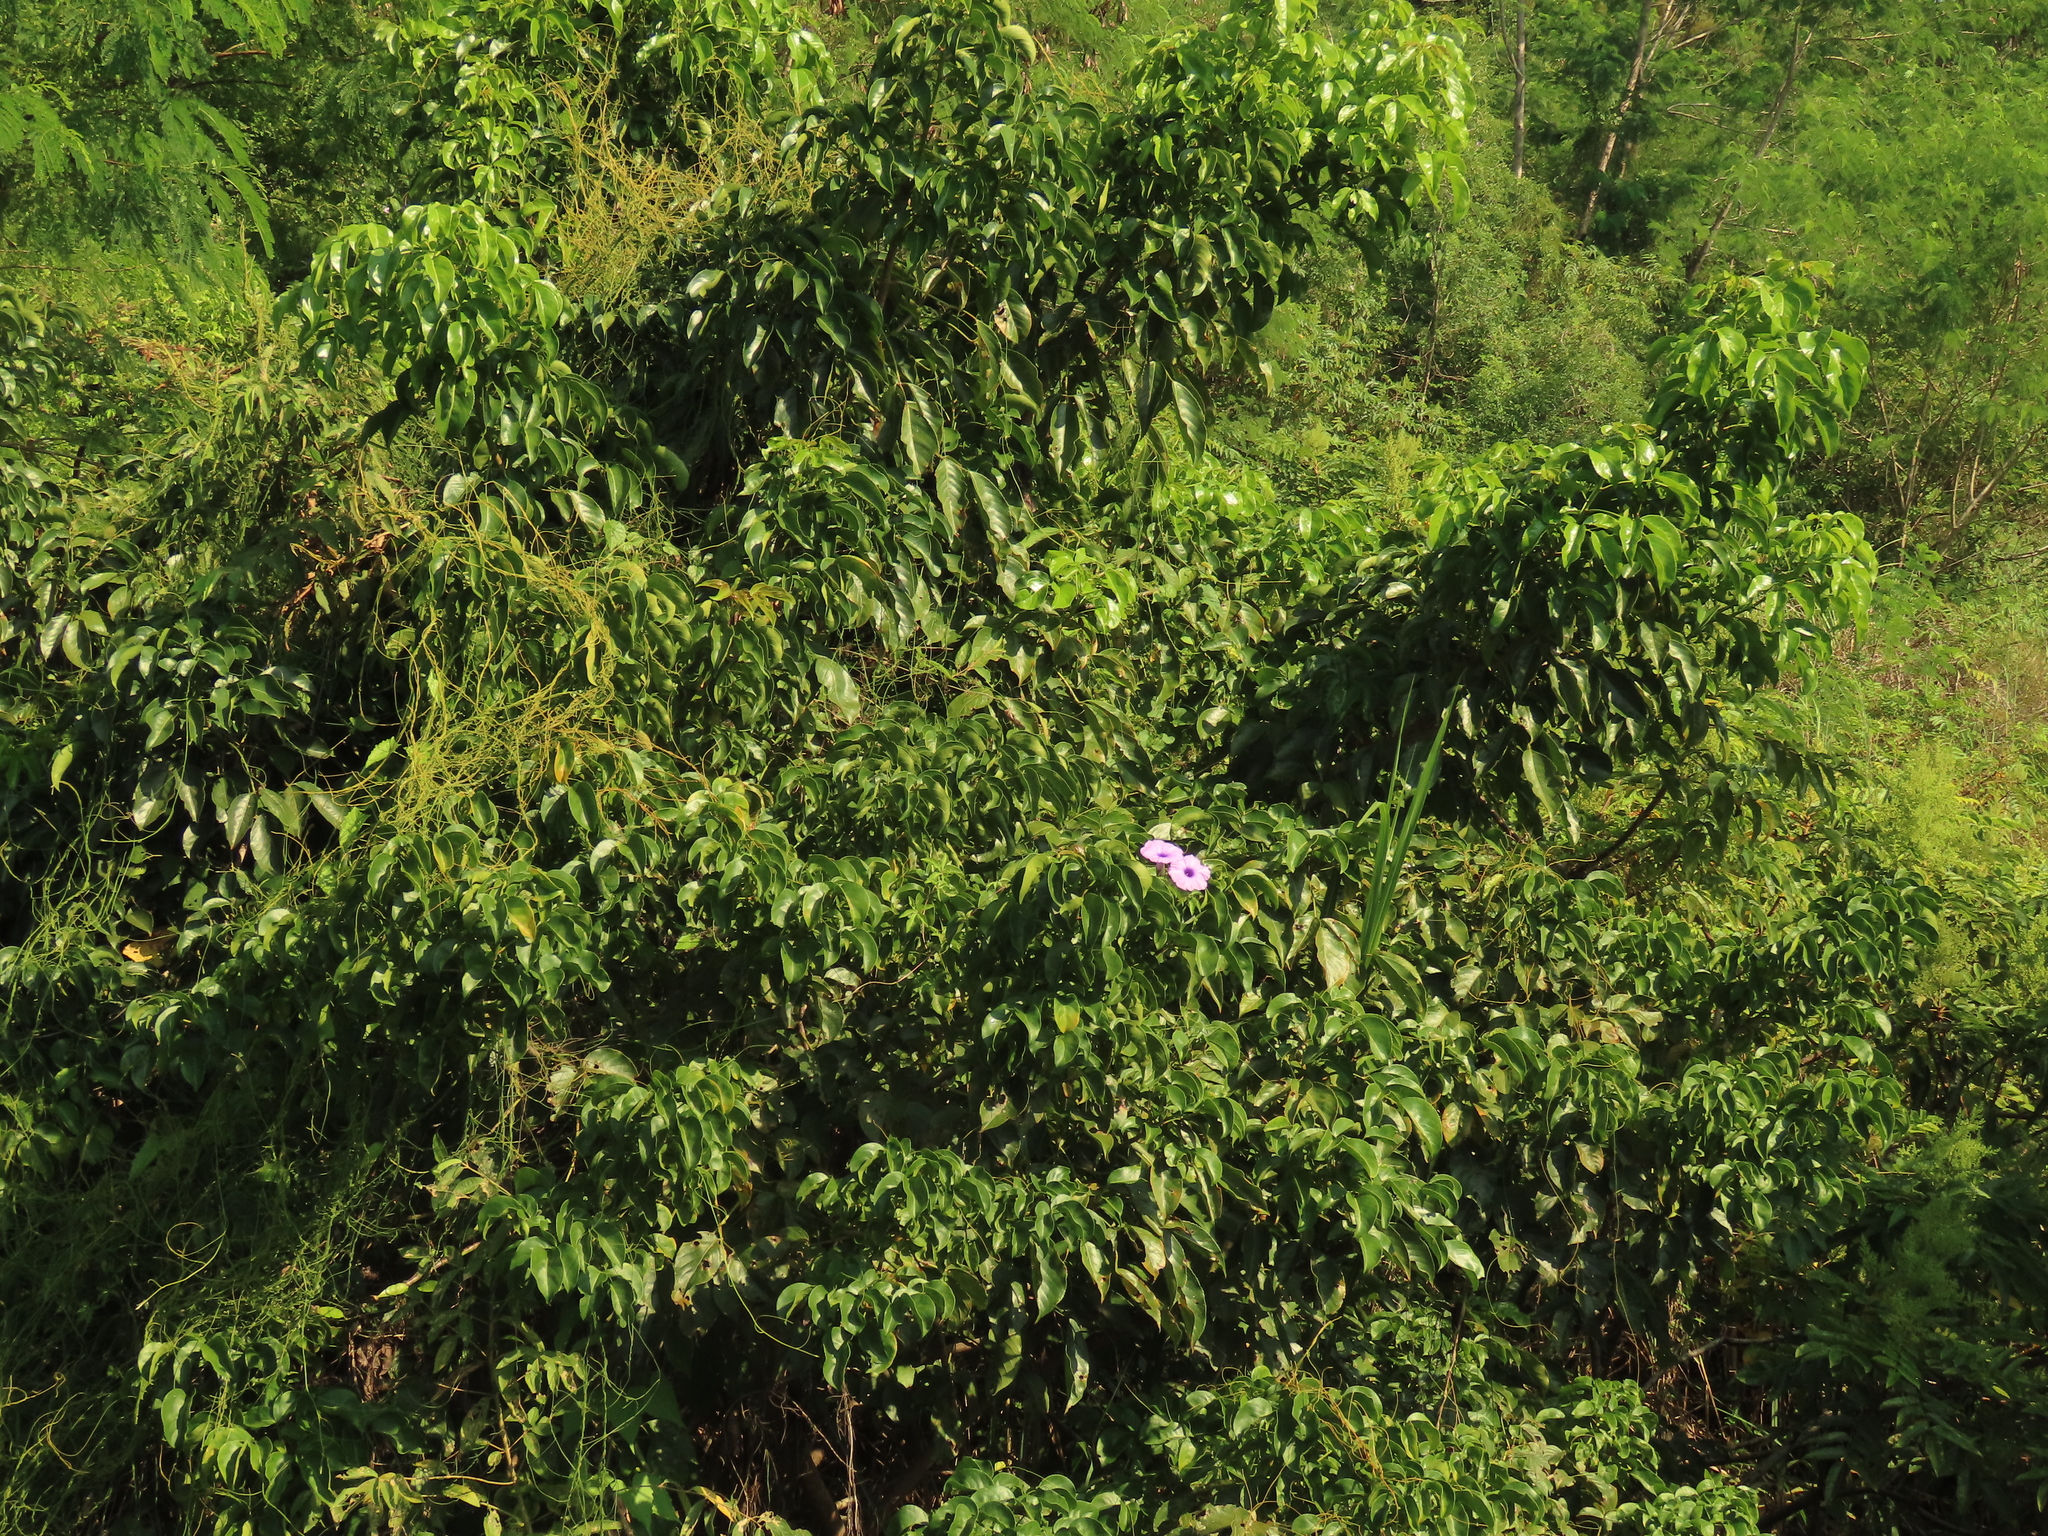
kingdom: Plantae
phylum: Tracheophyta
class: Magnoliopsida
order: Malpighiales
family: Phyllanthaceae
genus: Bischofia
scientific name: Bischofia javanica
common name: Javanese bishopwood
